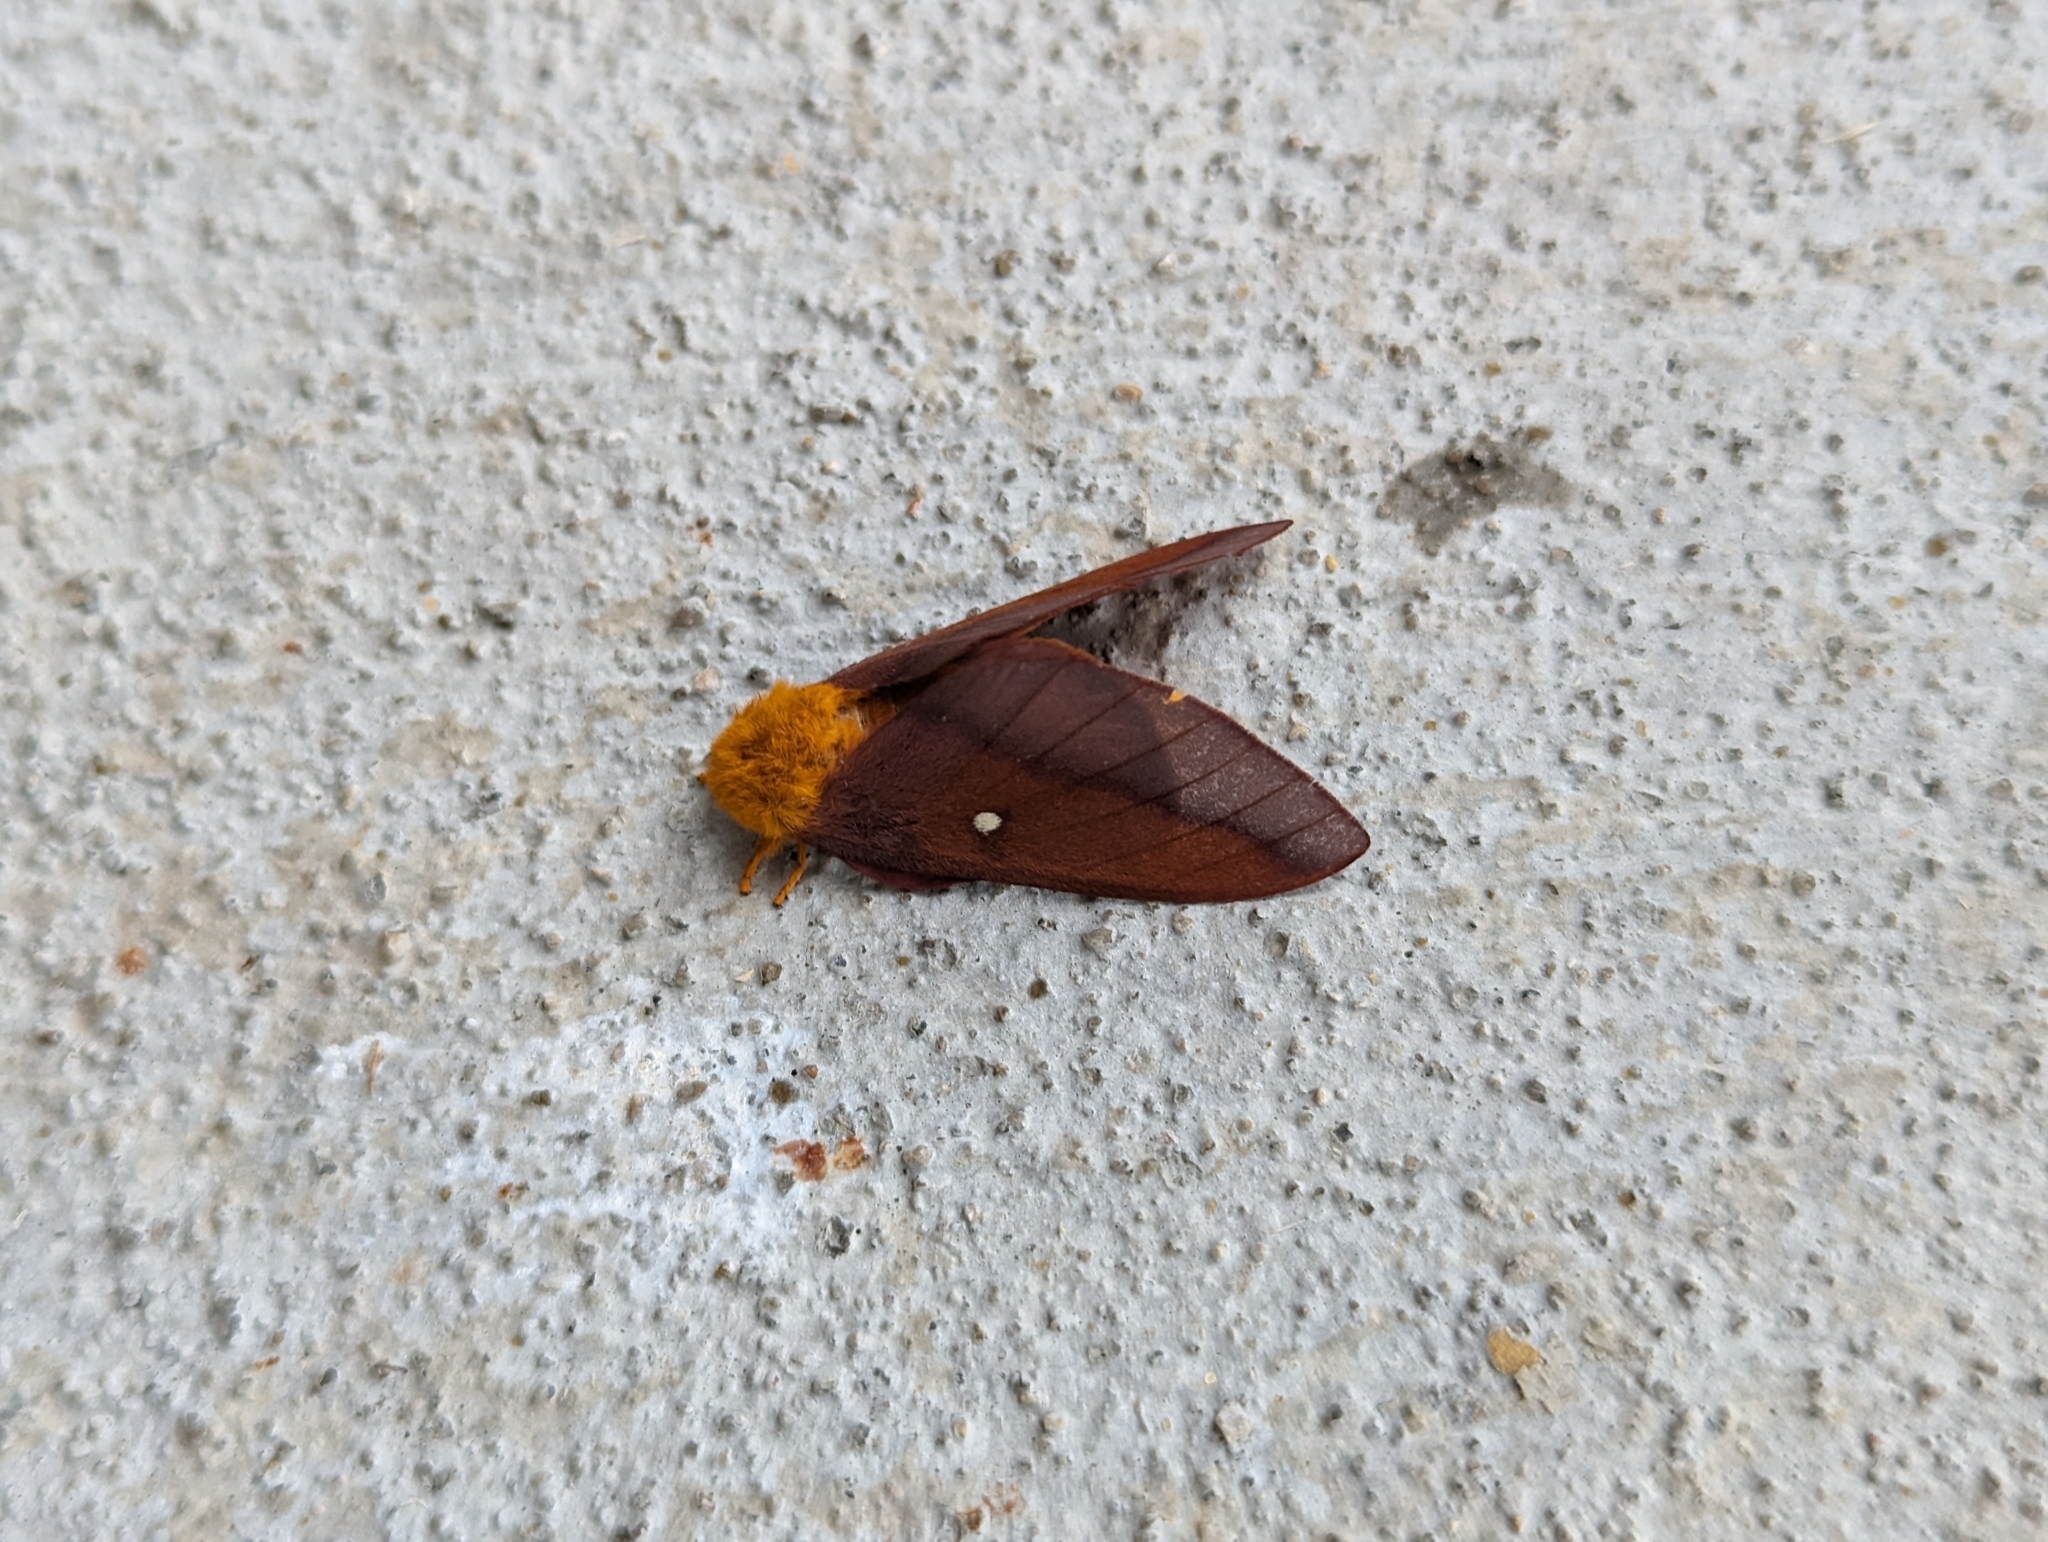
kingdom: Animalia
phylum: Arthropoda
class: Insecta
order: Lepidoptera
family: Saturniidae
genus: Anisota
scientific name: Anisota virginiensis
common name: Pink striped oakworm moth
